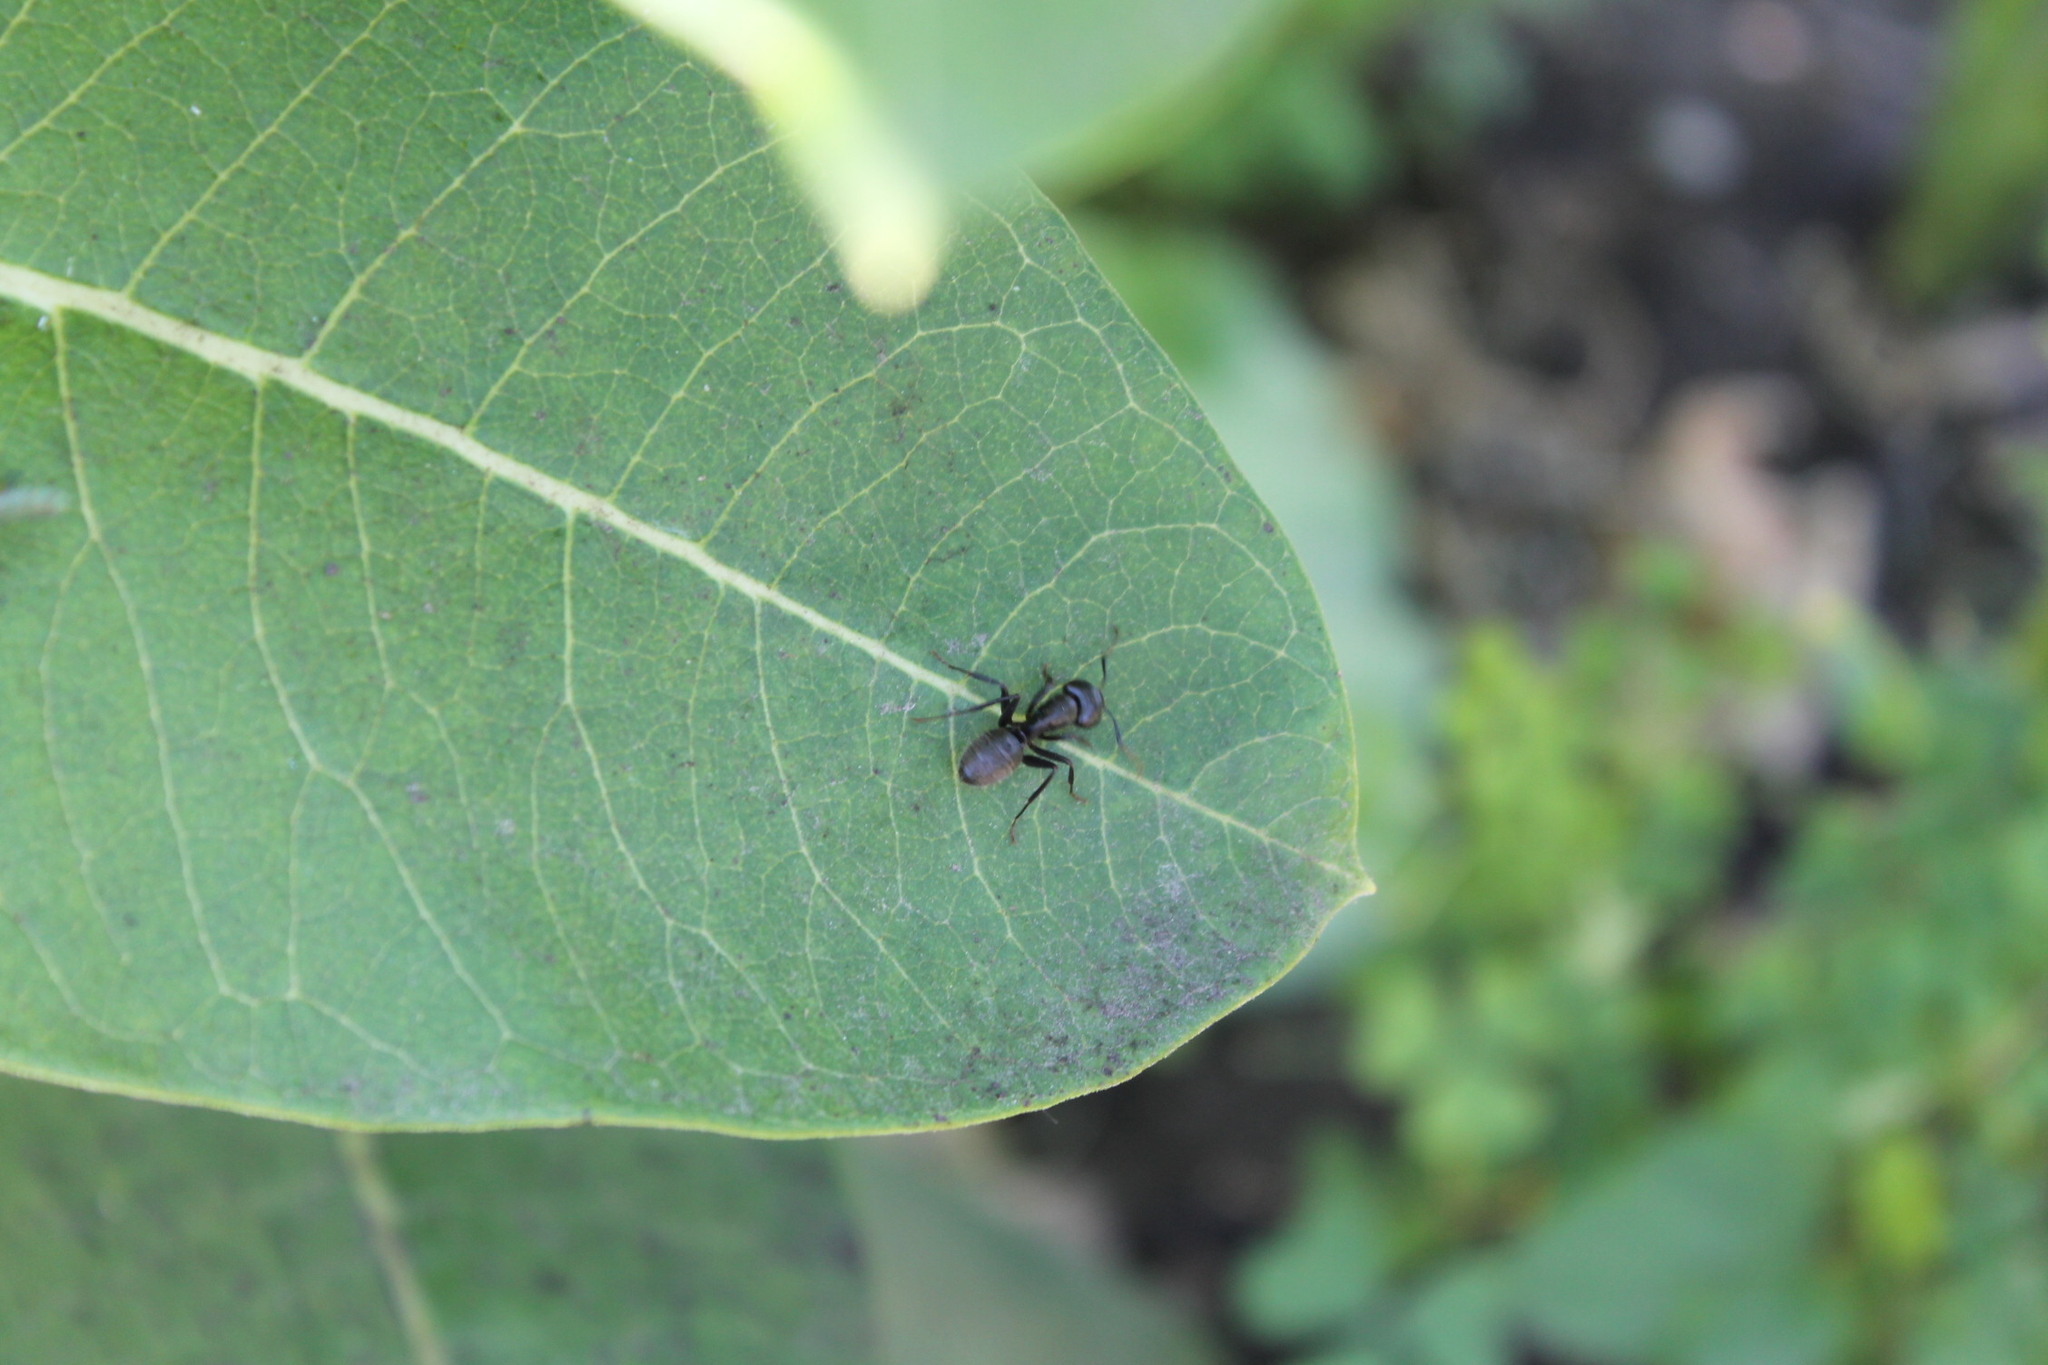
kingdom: Animalia
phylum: Arthropoda
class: Insecta
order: Hymenoptera
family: Formicidae
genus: Camponotus
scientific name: Camponotus pennsylvanicus
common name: Black carpenter ant
